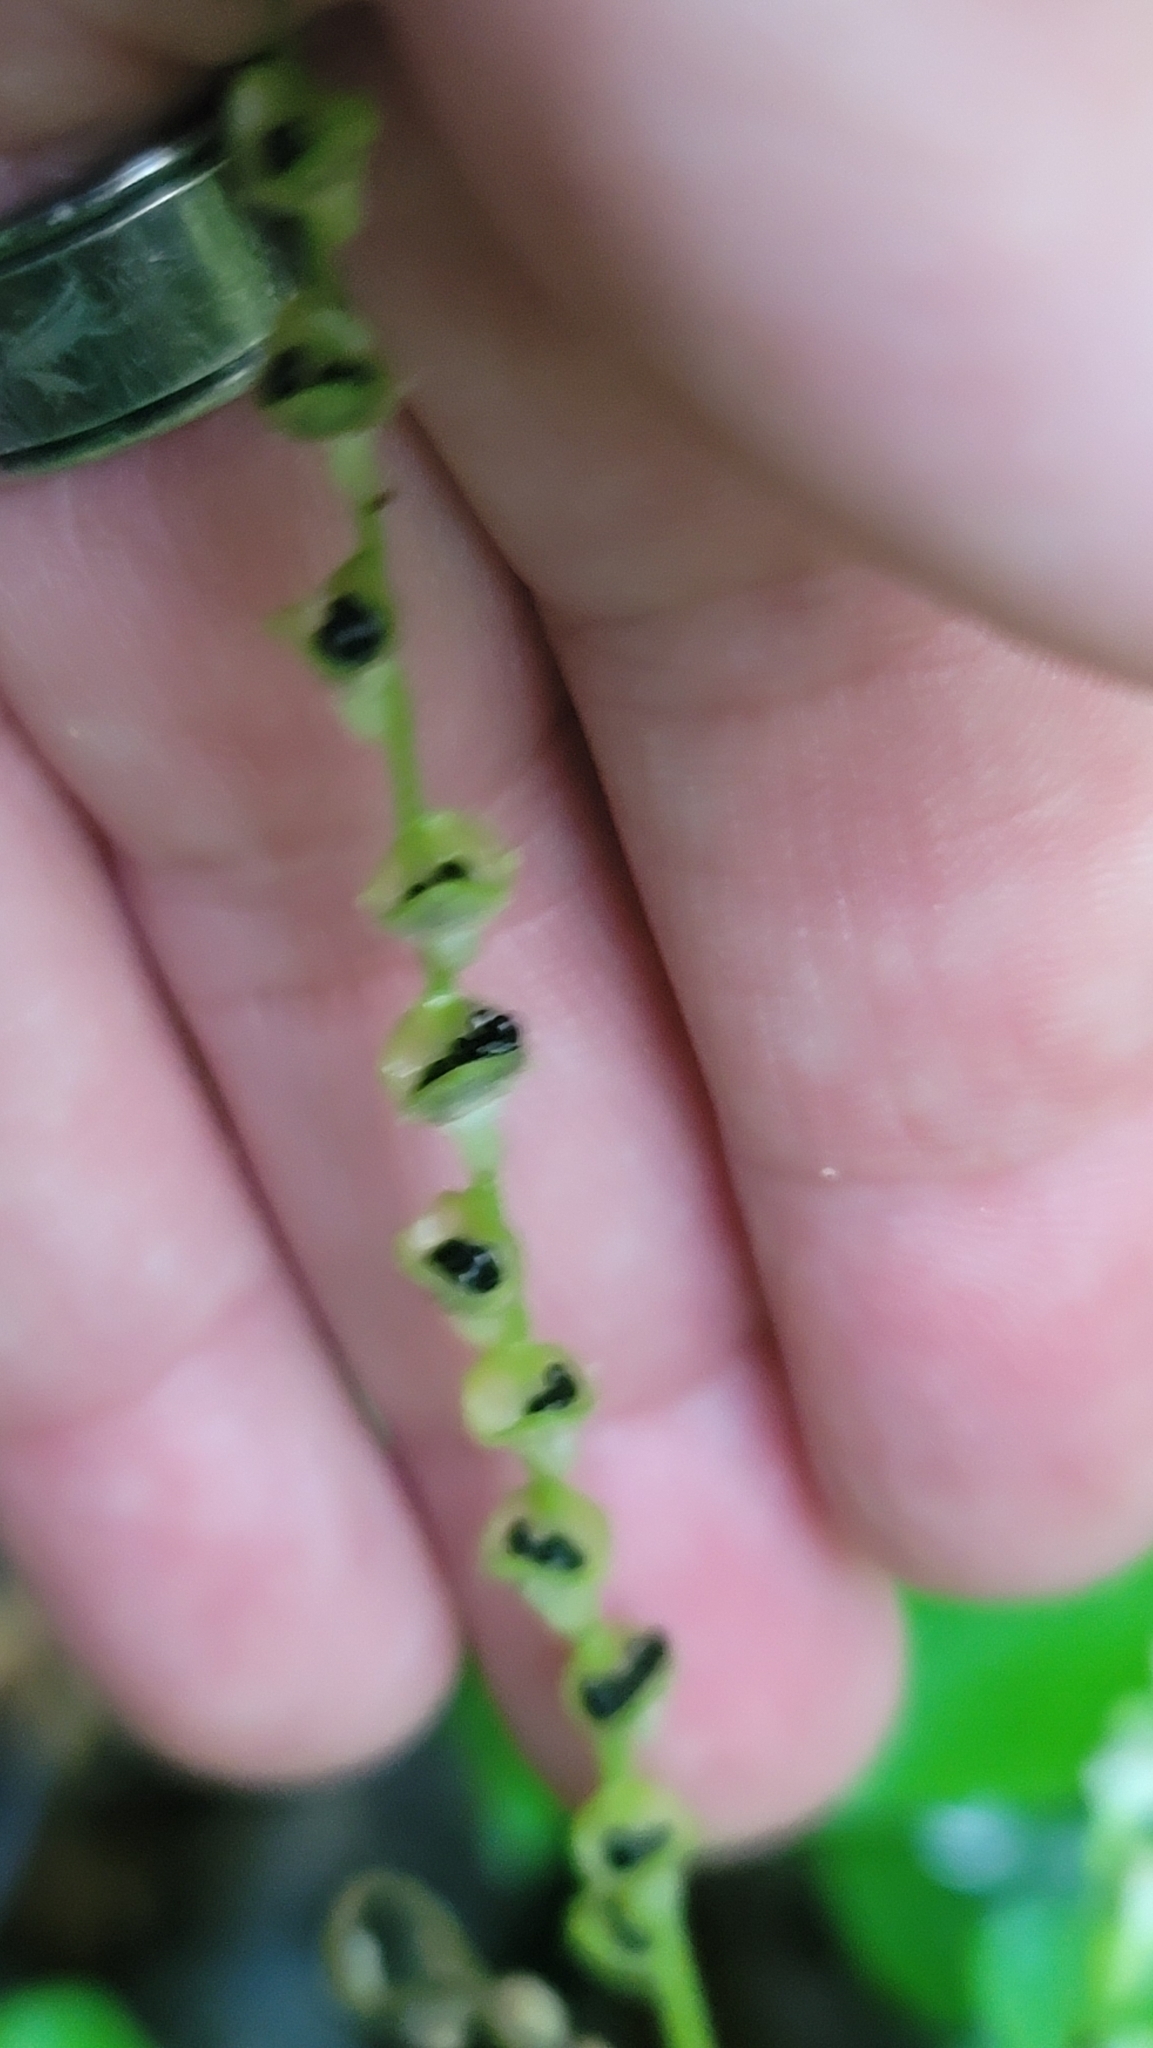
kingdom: Plantae
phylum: Tracheophyta
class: Magnoliopsida
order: Saxifragales
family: Saxifragaceae
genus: Mitella
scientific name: Mitella diphylla
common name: Coolwort
